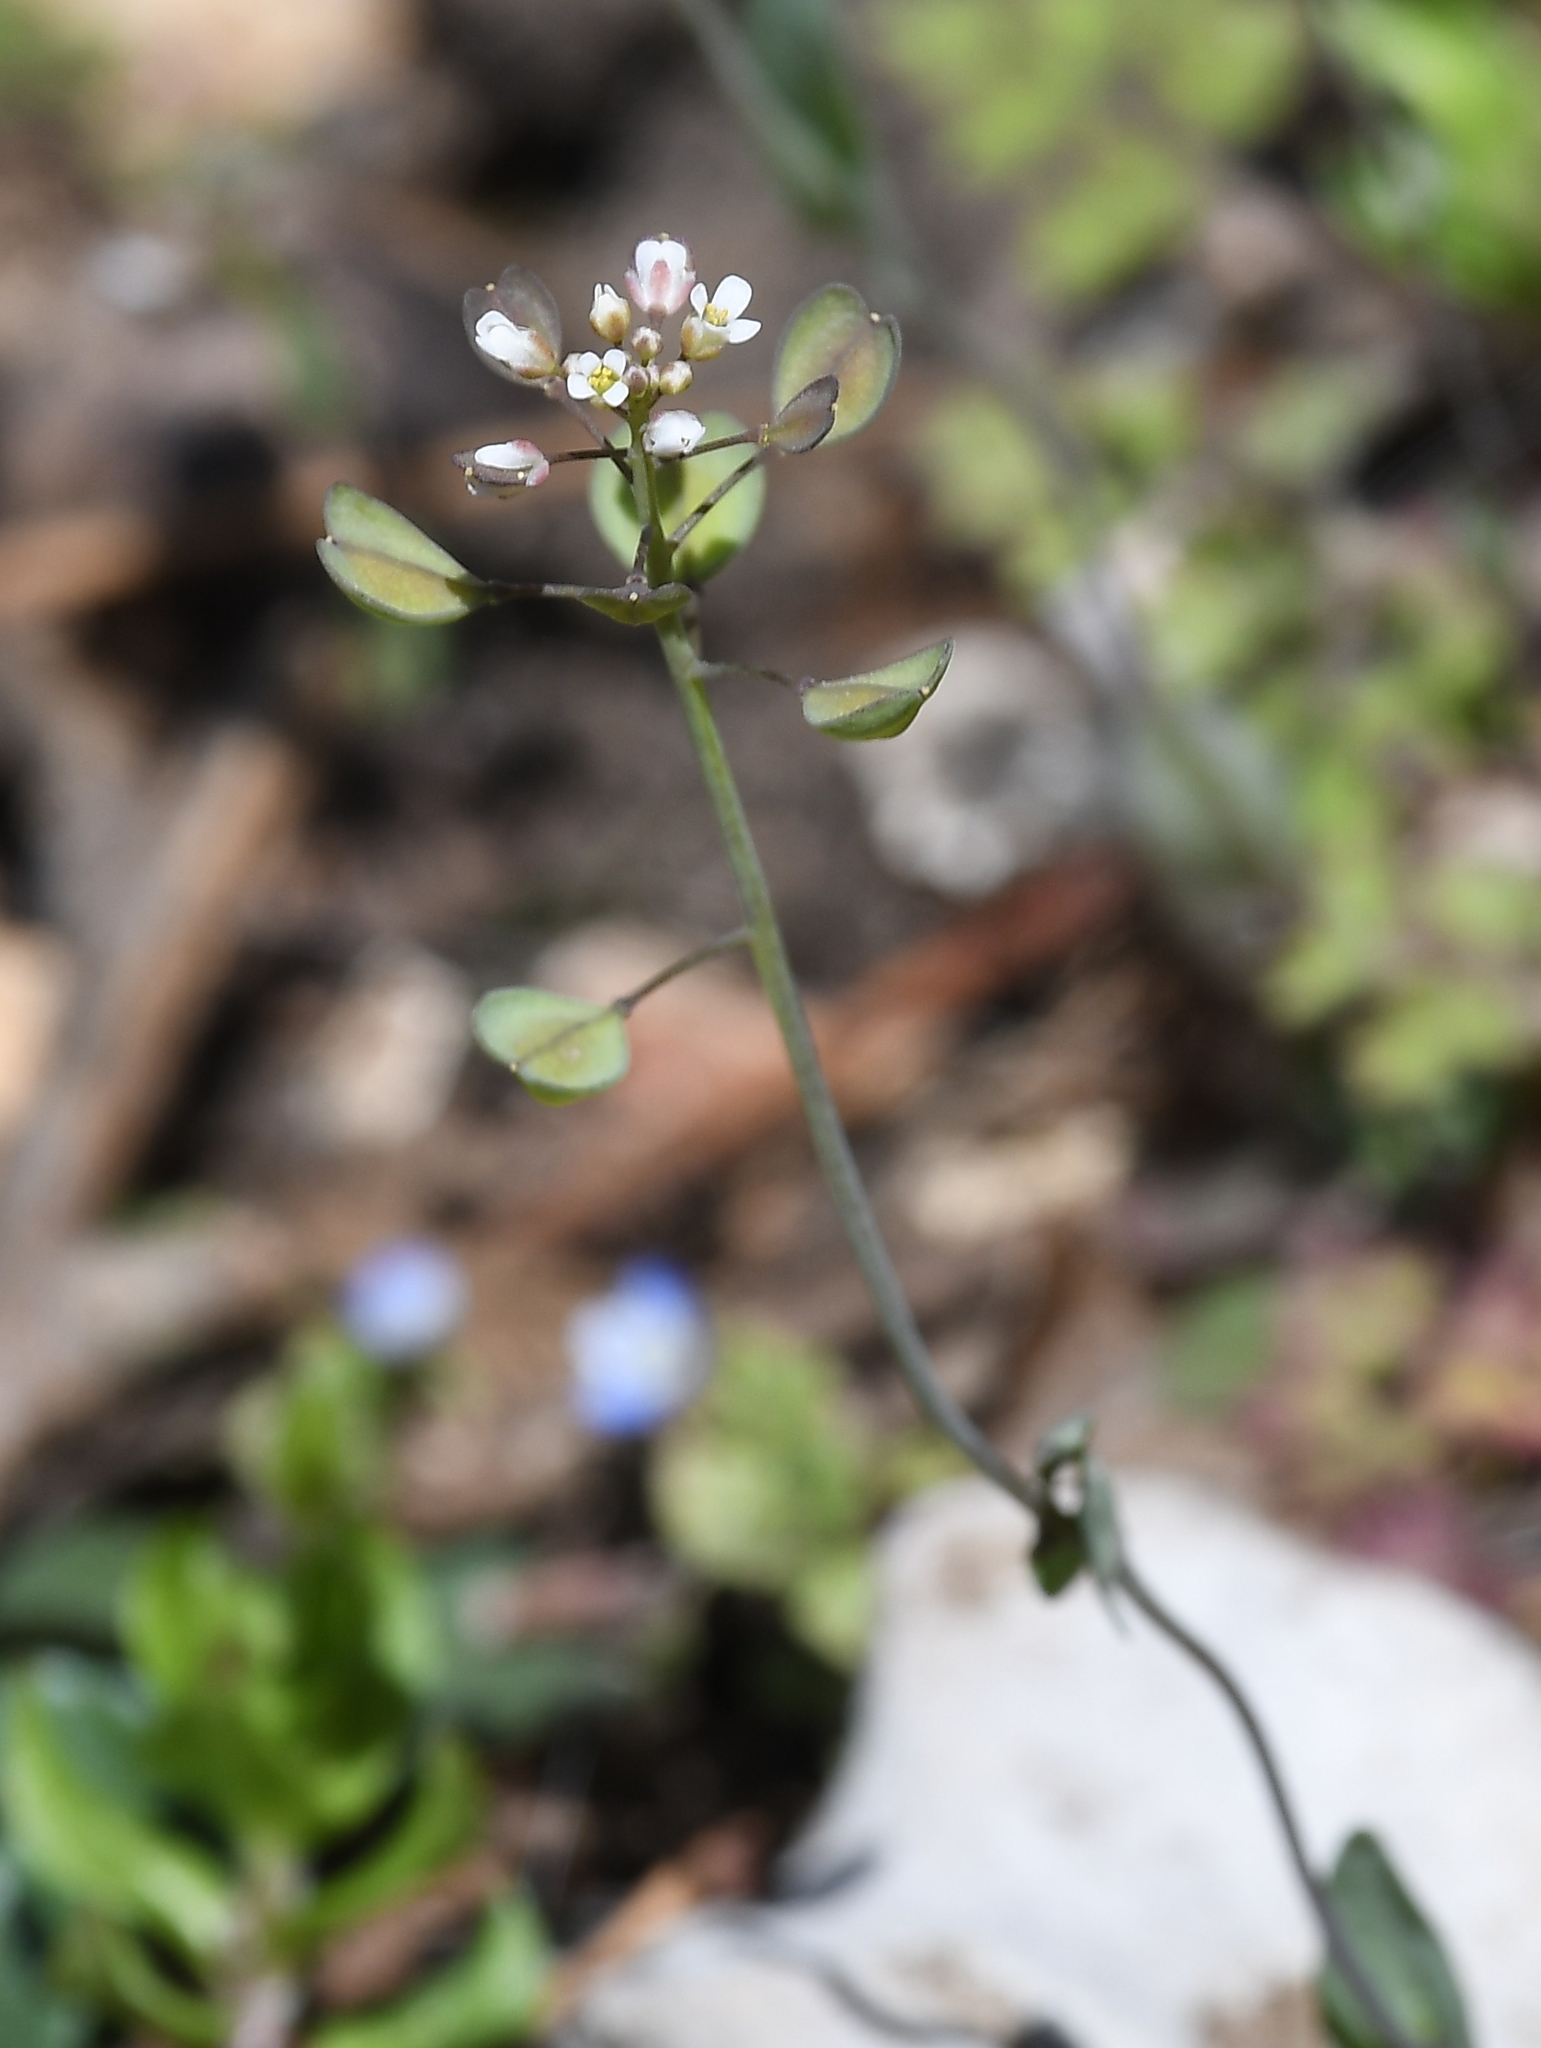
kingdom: Plantae
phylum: Tracheophyta
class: Magnoliopsida
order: Brassicales
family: Brassicaceae
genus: Noccaea
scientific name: Noccaea perfoliata
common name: Perfoliate pennycress
